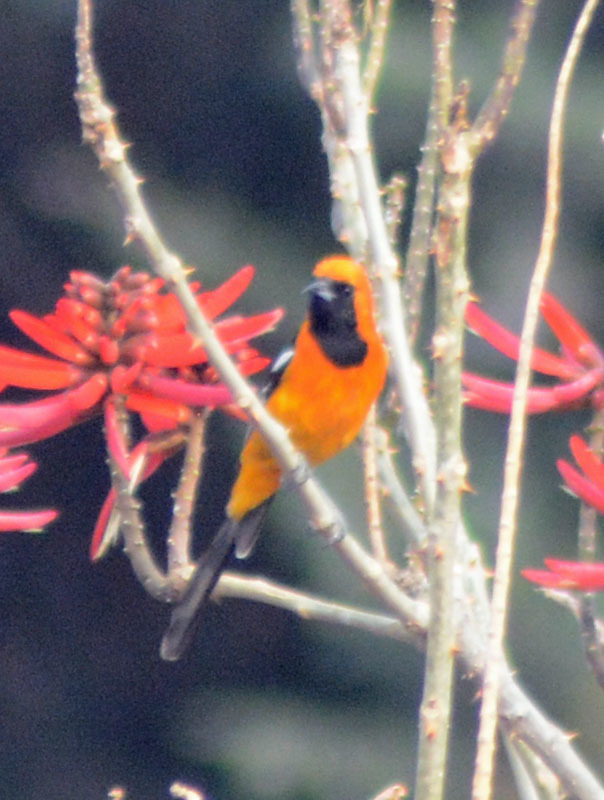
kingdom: Animalia
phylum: Chordata
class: Aves
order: Passeriformes
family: Icteridae
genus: Icterus
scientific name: Icterus cucullatus
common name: Hooded oriole
